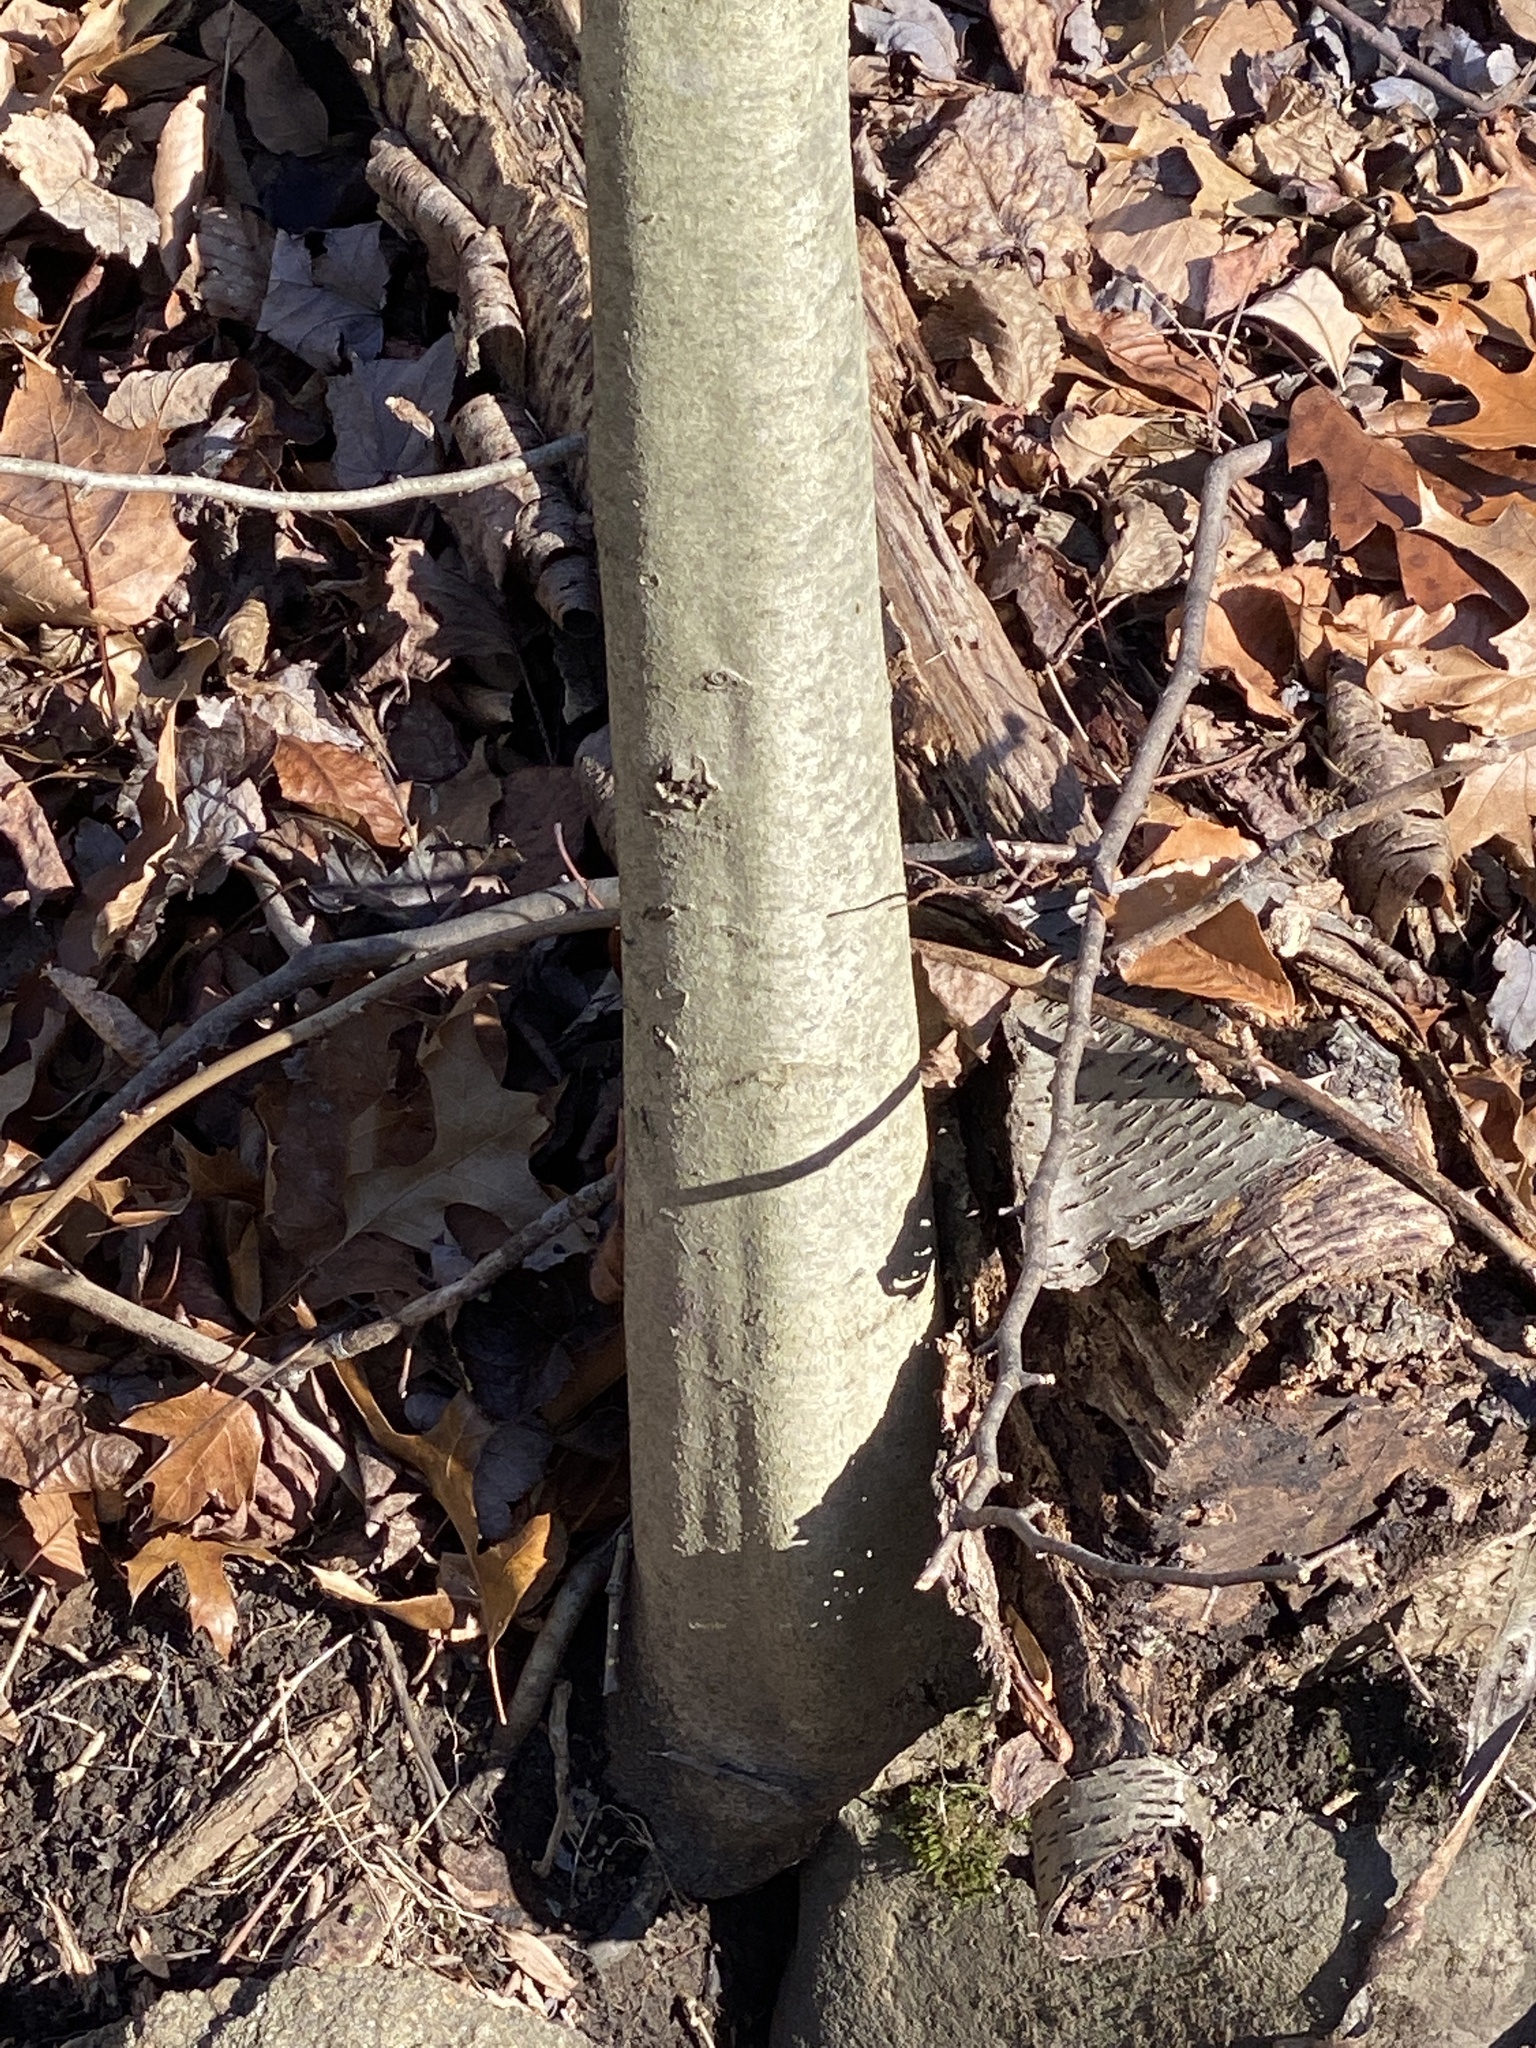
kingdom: Plantae
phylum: Tracheophyta
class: Magnoliopsida
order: Fagales
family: Fagaceae
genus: Fagus
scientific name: Fagus grandifolia
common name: American beech
